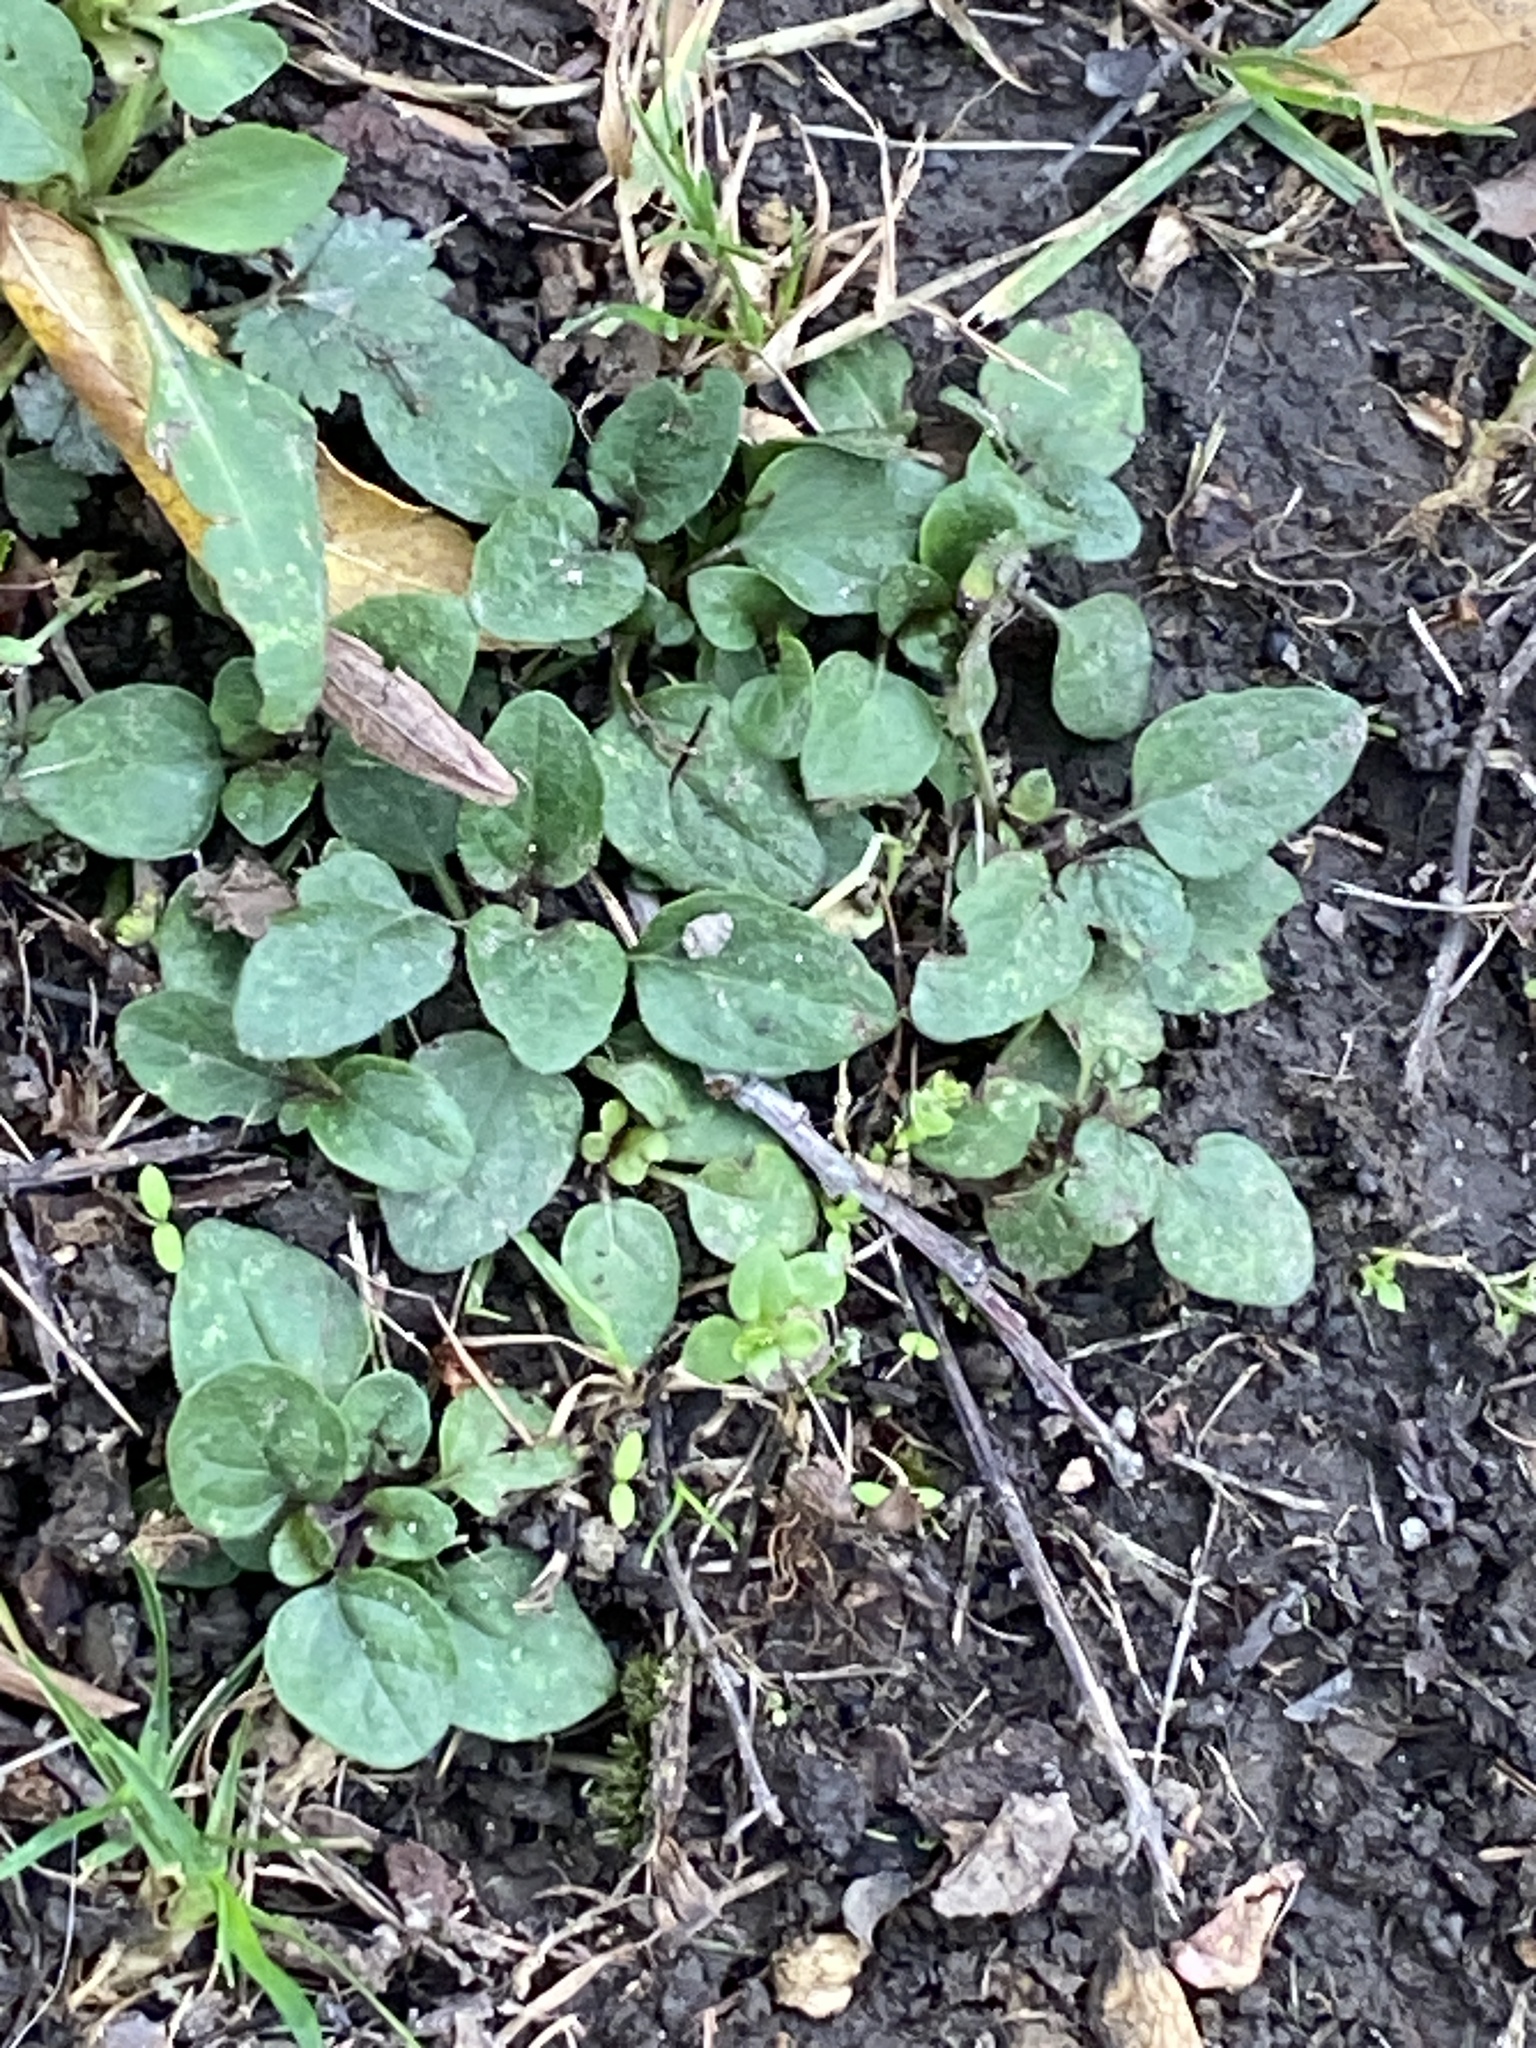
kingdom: Plantae
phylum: Tracheophyta
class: Magnoliopsida
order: Lamiales
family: Lamiaceae
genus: Prunella
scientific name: Prunella vulgaris
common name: Heal-all
